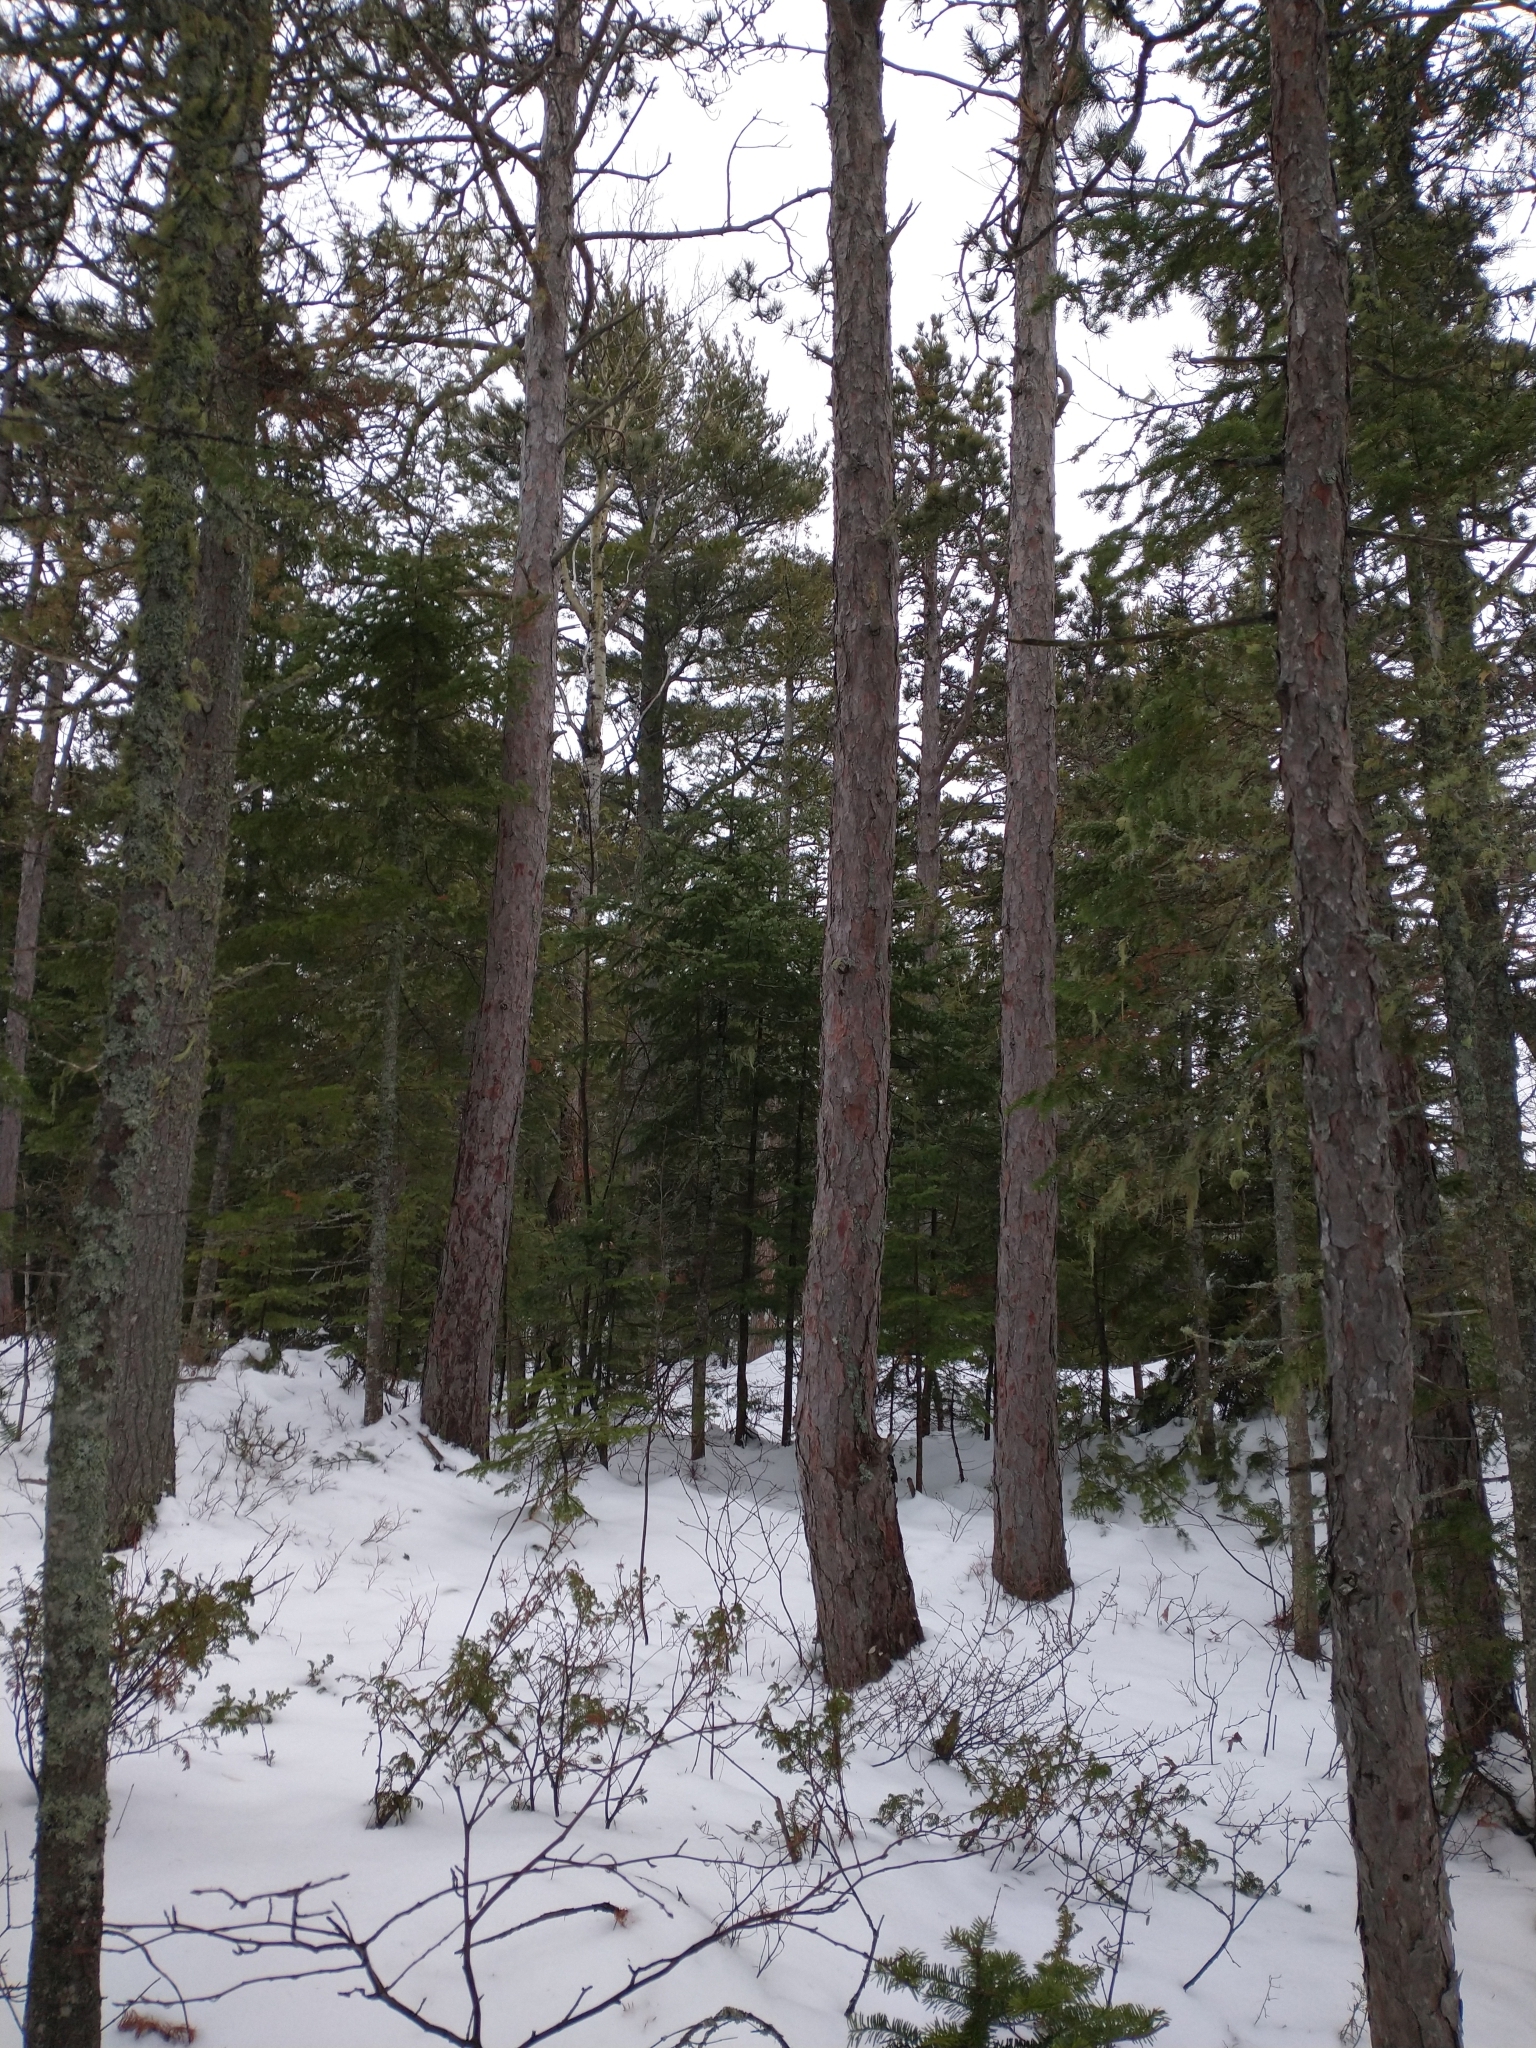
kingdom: Plantae
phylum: Tracheophyta
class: Pinopsida
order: Pinales
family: Pinaceae
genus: Pinus
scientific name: Pinus resinosa
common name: Norway pine
